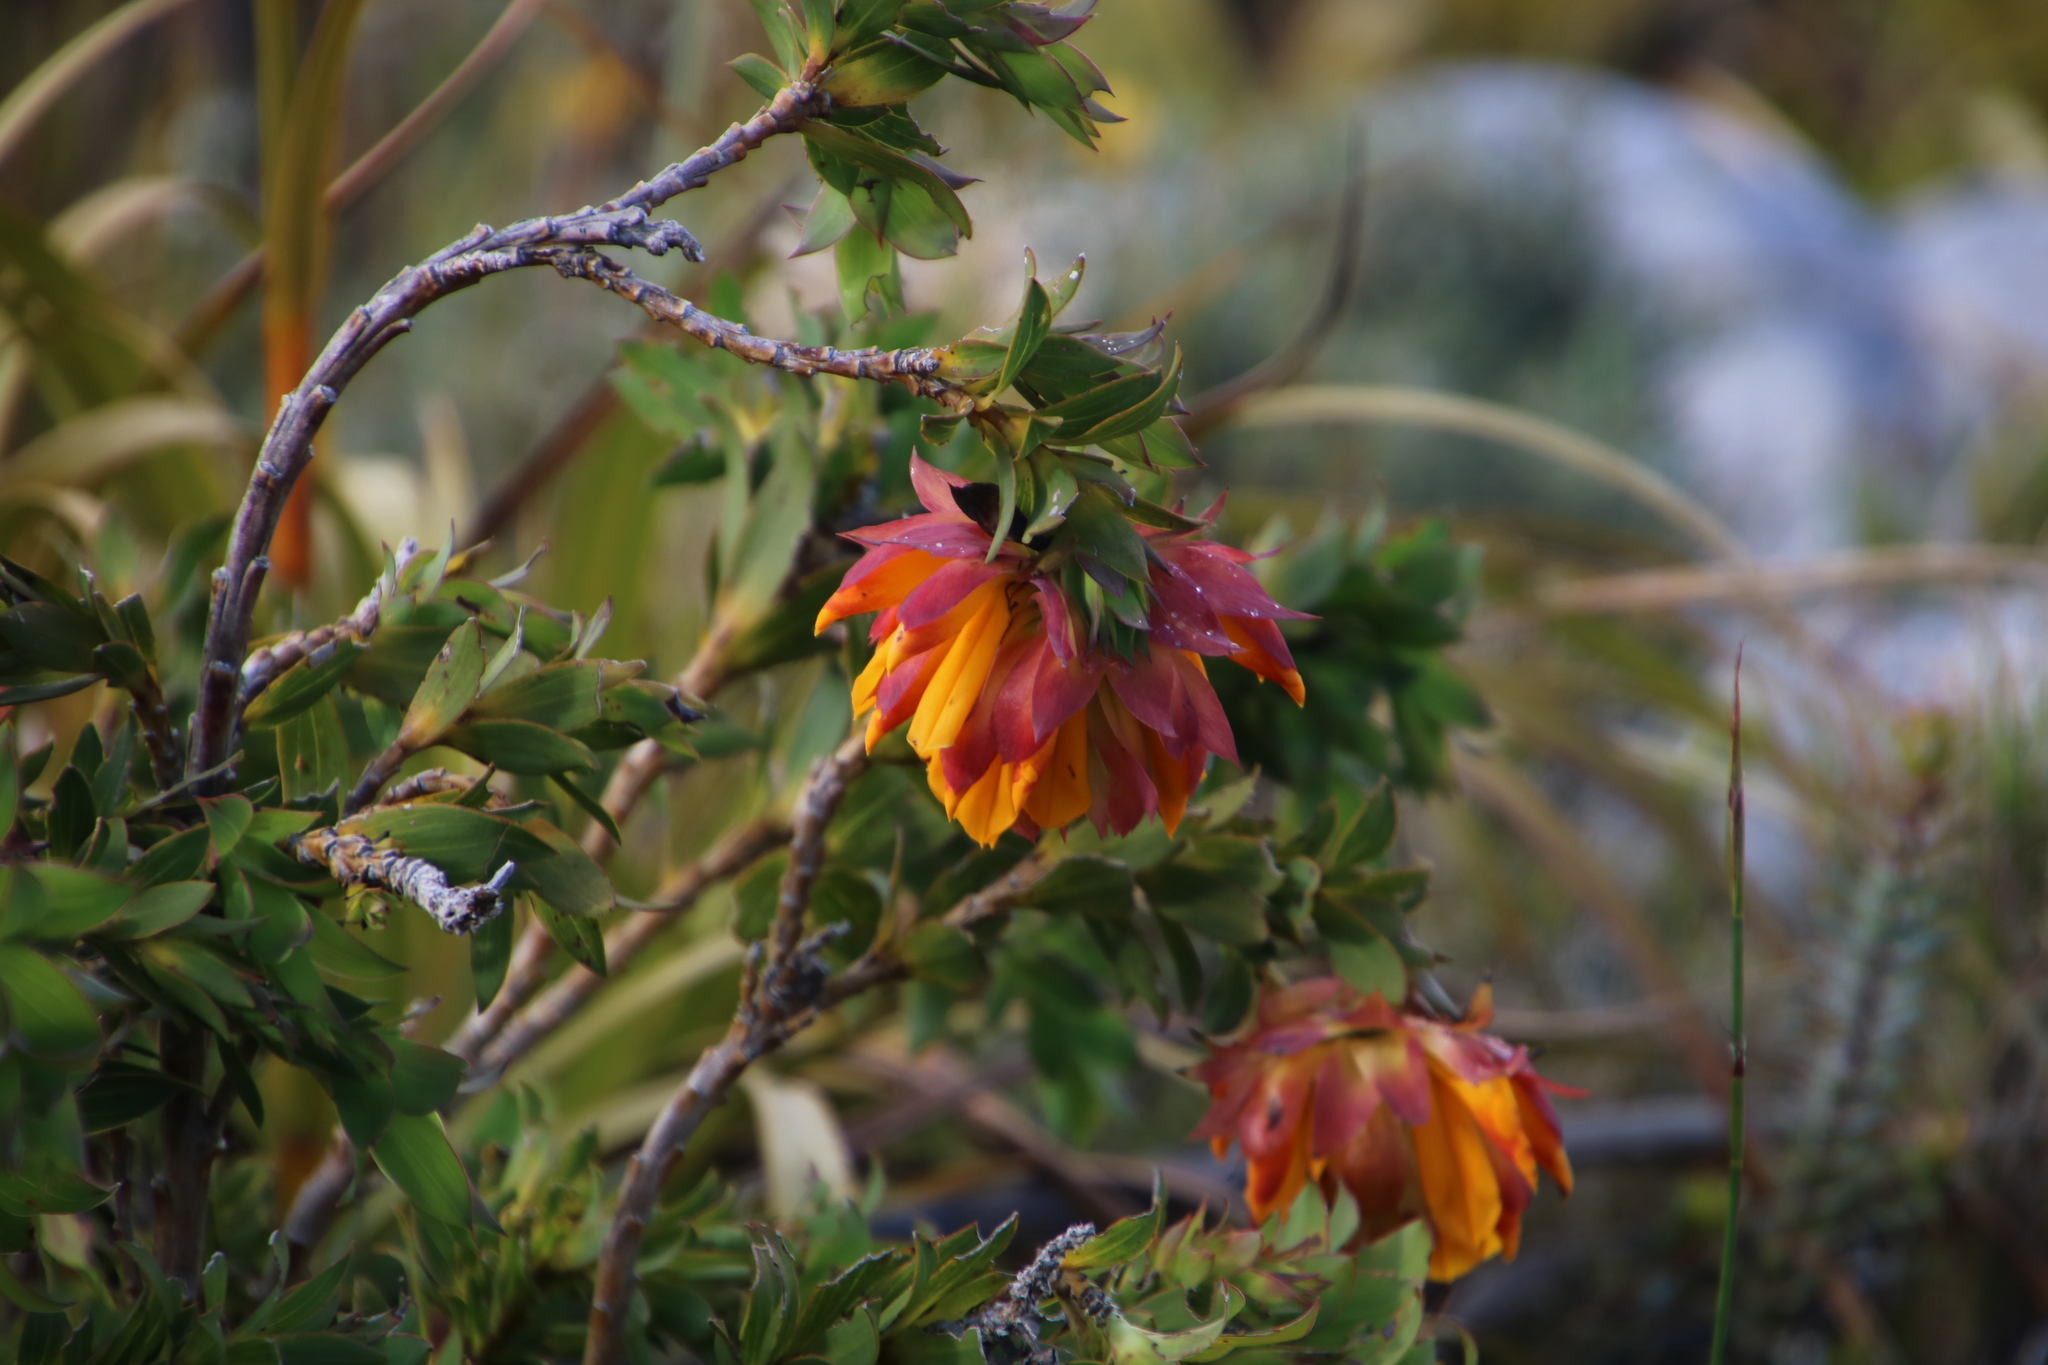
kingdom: Plantae
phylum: Tracheophyta
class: Magnoliopsida
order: Fabales
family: Fabaceae
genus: Liparia
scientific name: Liparia splendens
